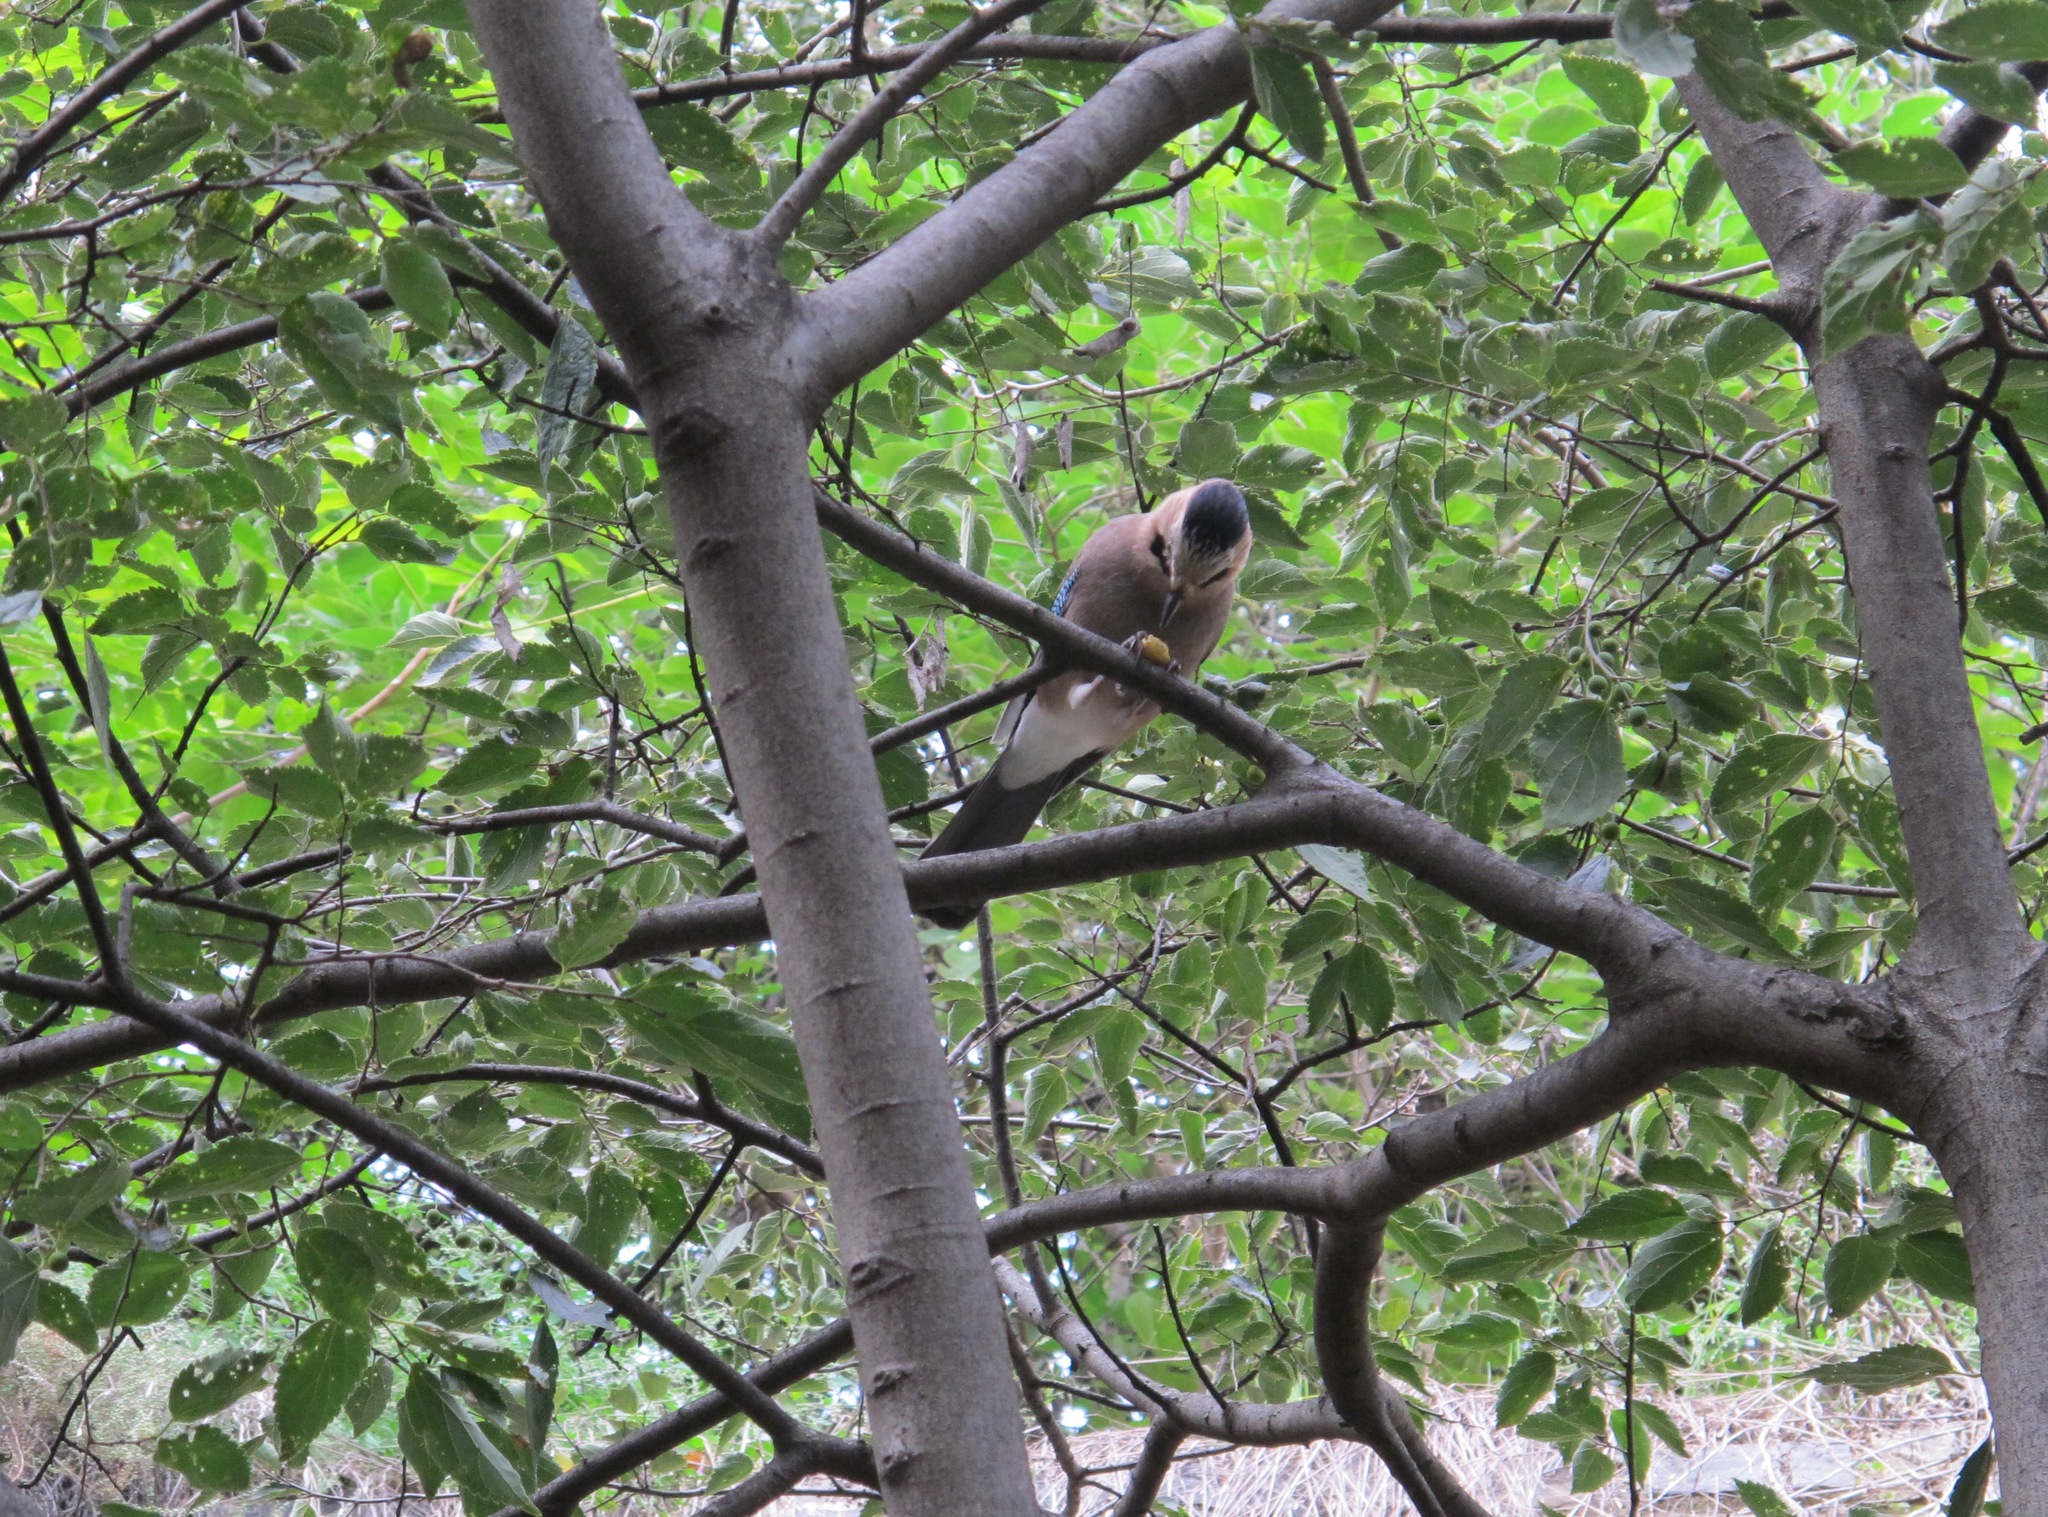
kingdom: Animalia
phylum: Chordata
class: Aves
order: Passeriformes
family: Corvidae
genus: Garrulus
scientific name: Garrulus glandarius
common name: Eurasian jay
